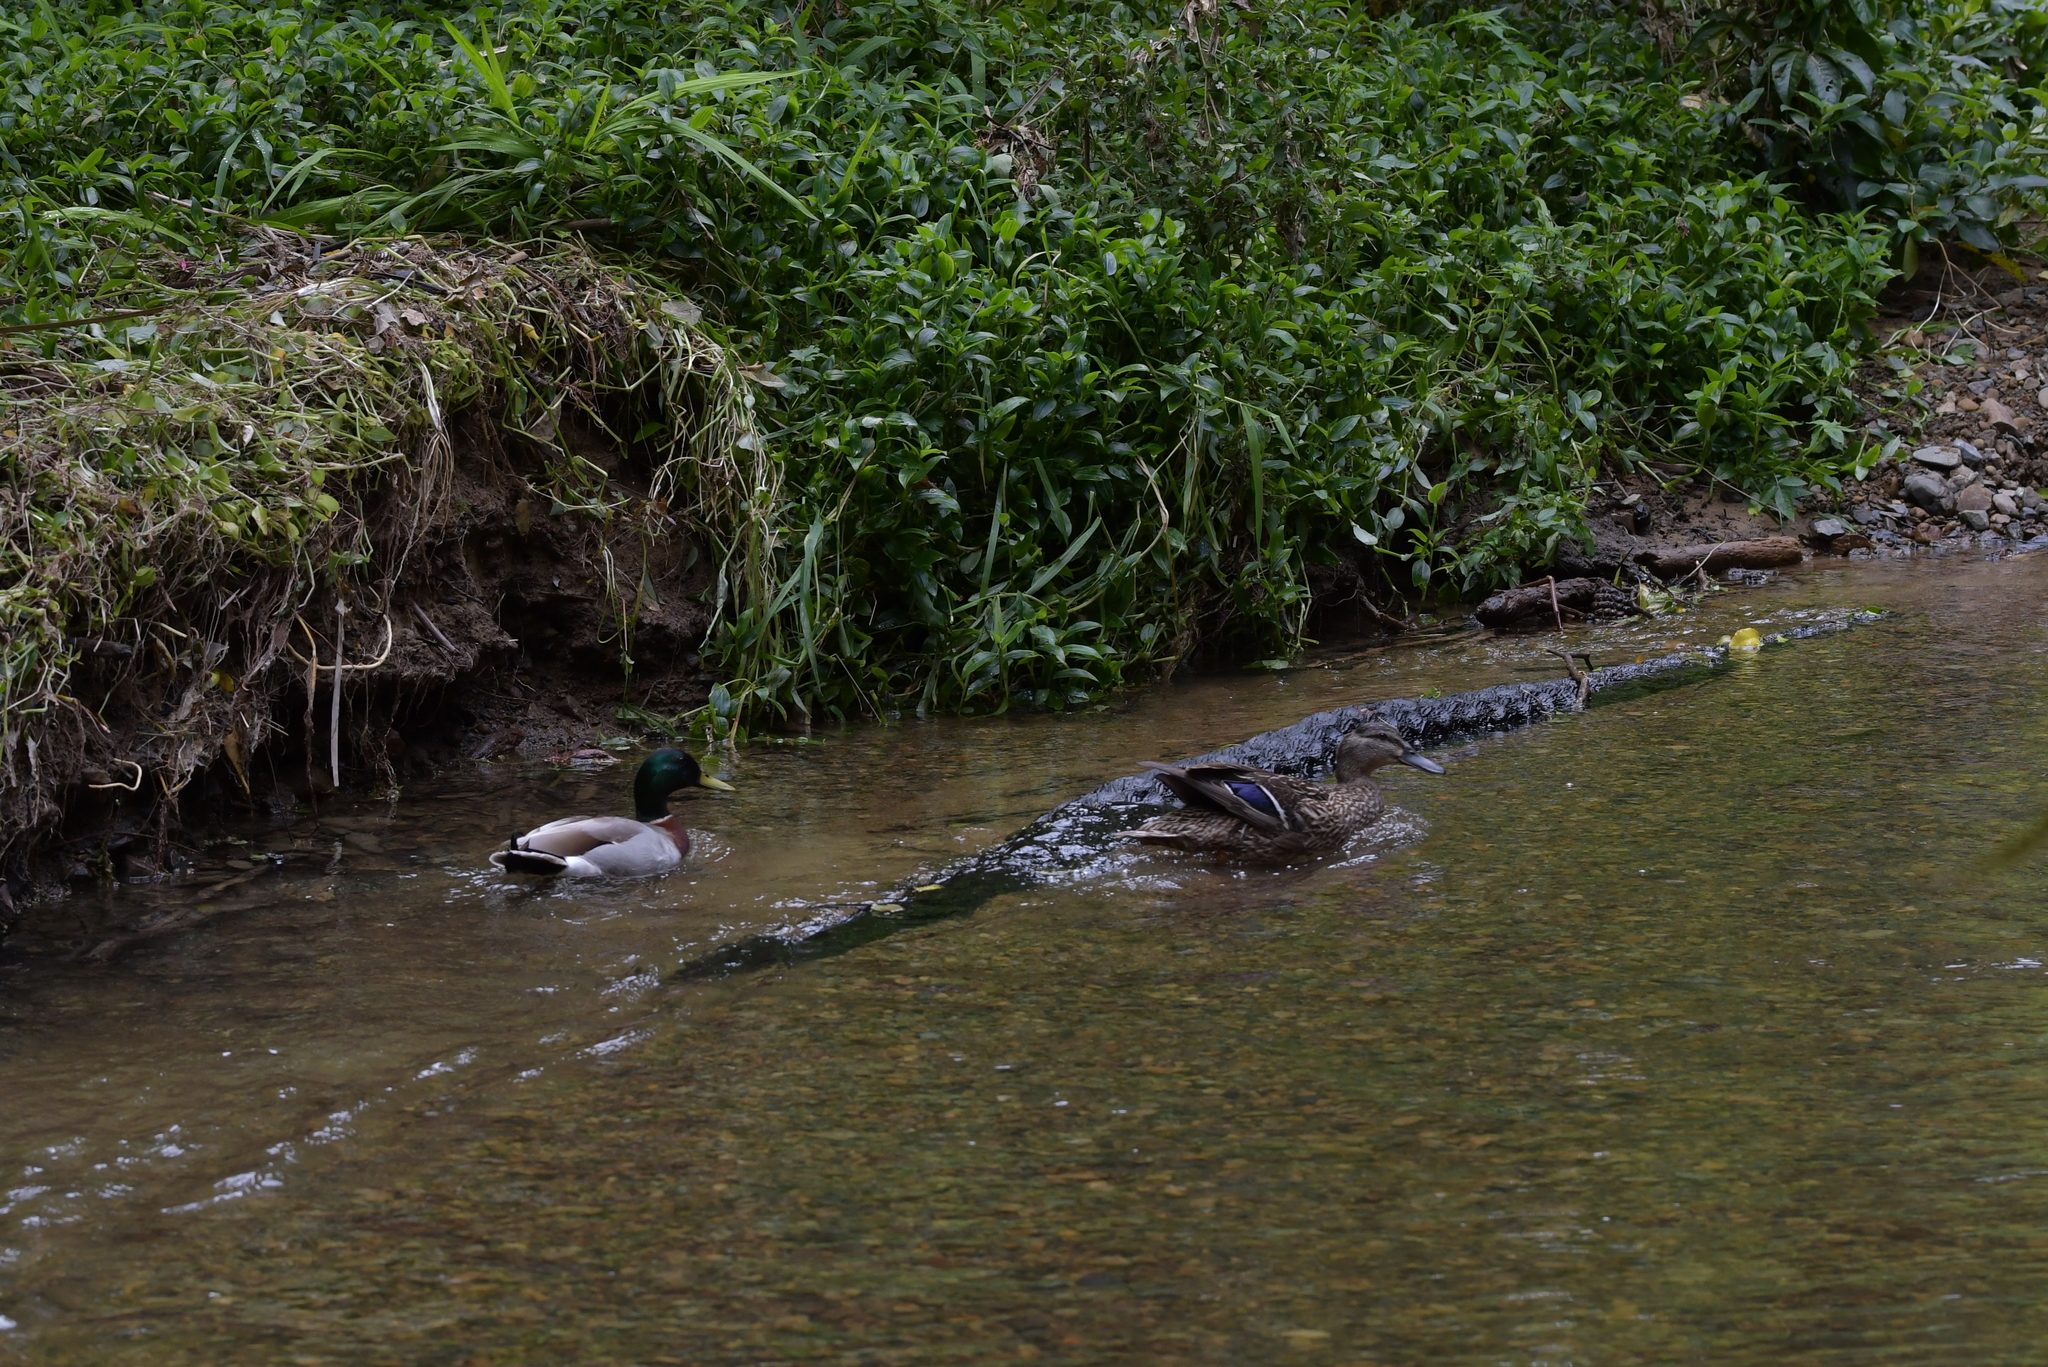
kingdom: Animalia
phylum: Chordata
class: Aves
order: Anseriformes
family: Anatidae
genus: Anas
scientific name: Anas platyrhynchos
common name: Mallard
